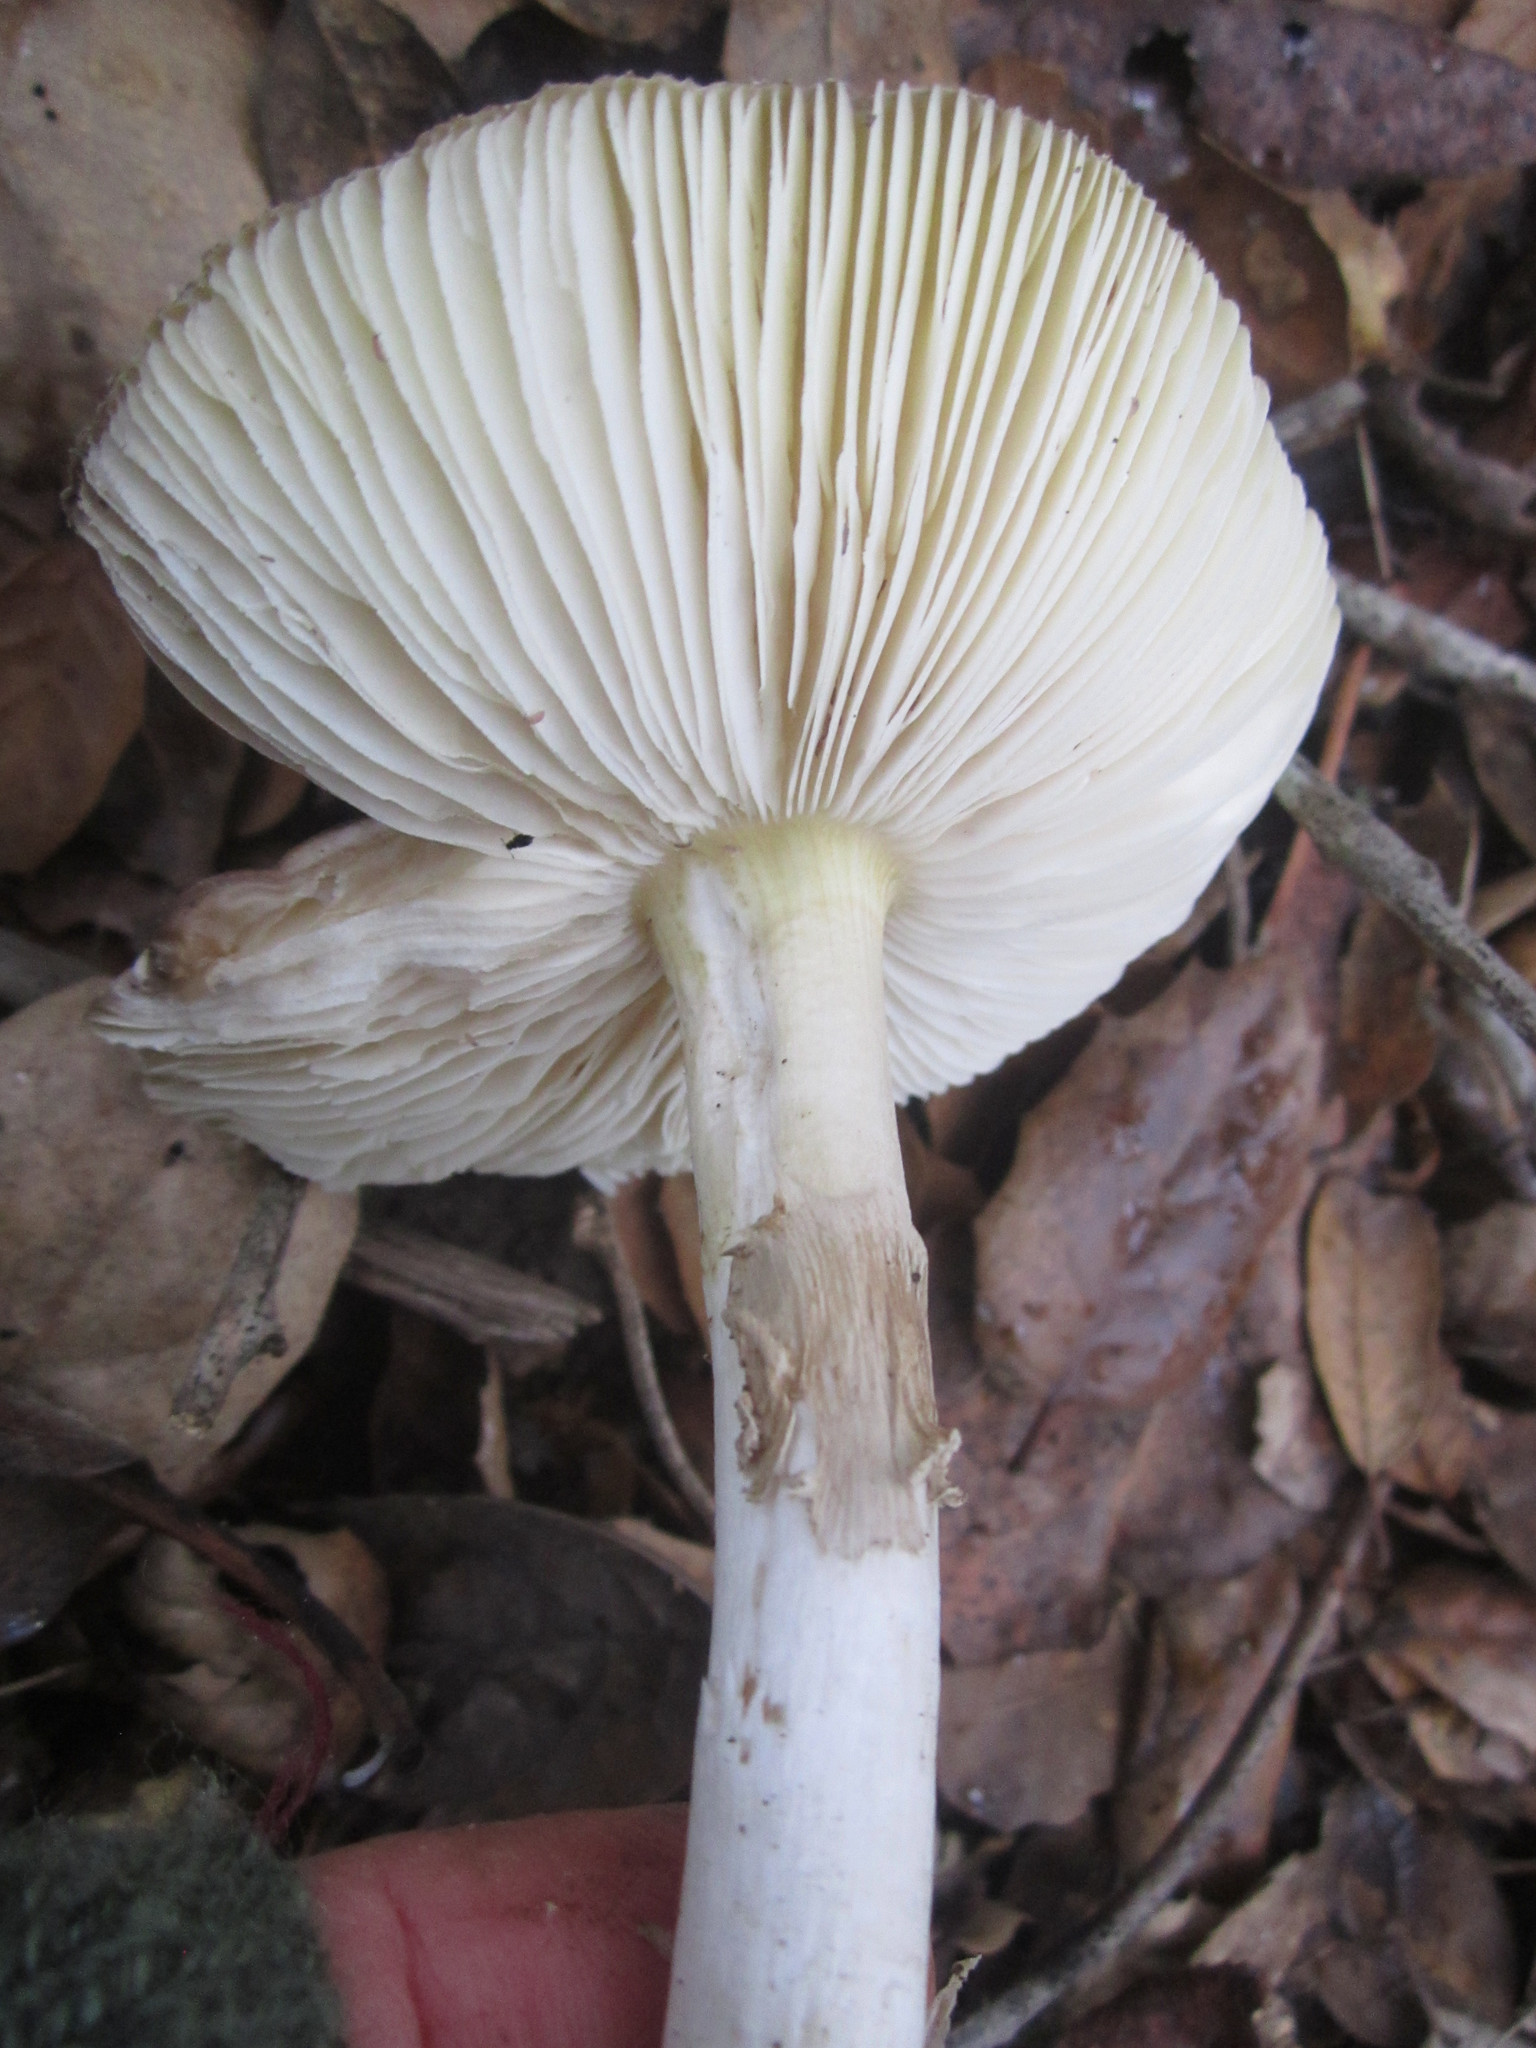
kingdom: Fungi
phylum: Basidiomycota
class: Agaricomycetes
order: Agaricales
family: Amanitaceae
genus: Amanita
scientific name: Amanita phalloides
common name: Death cap
